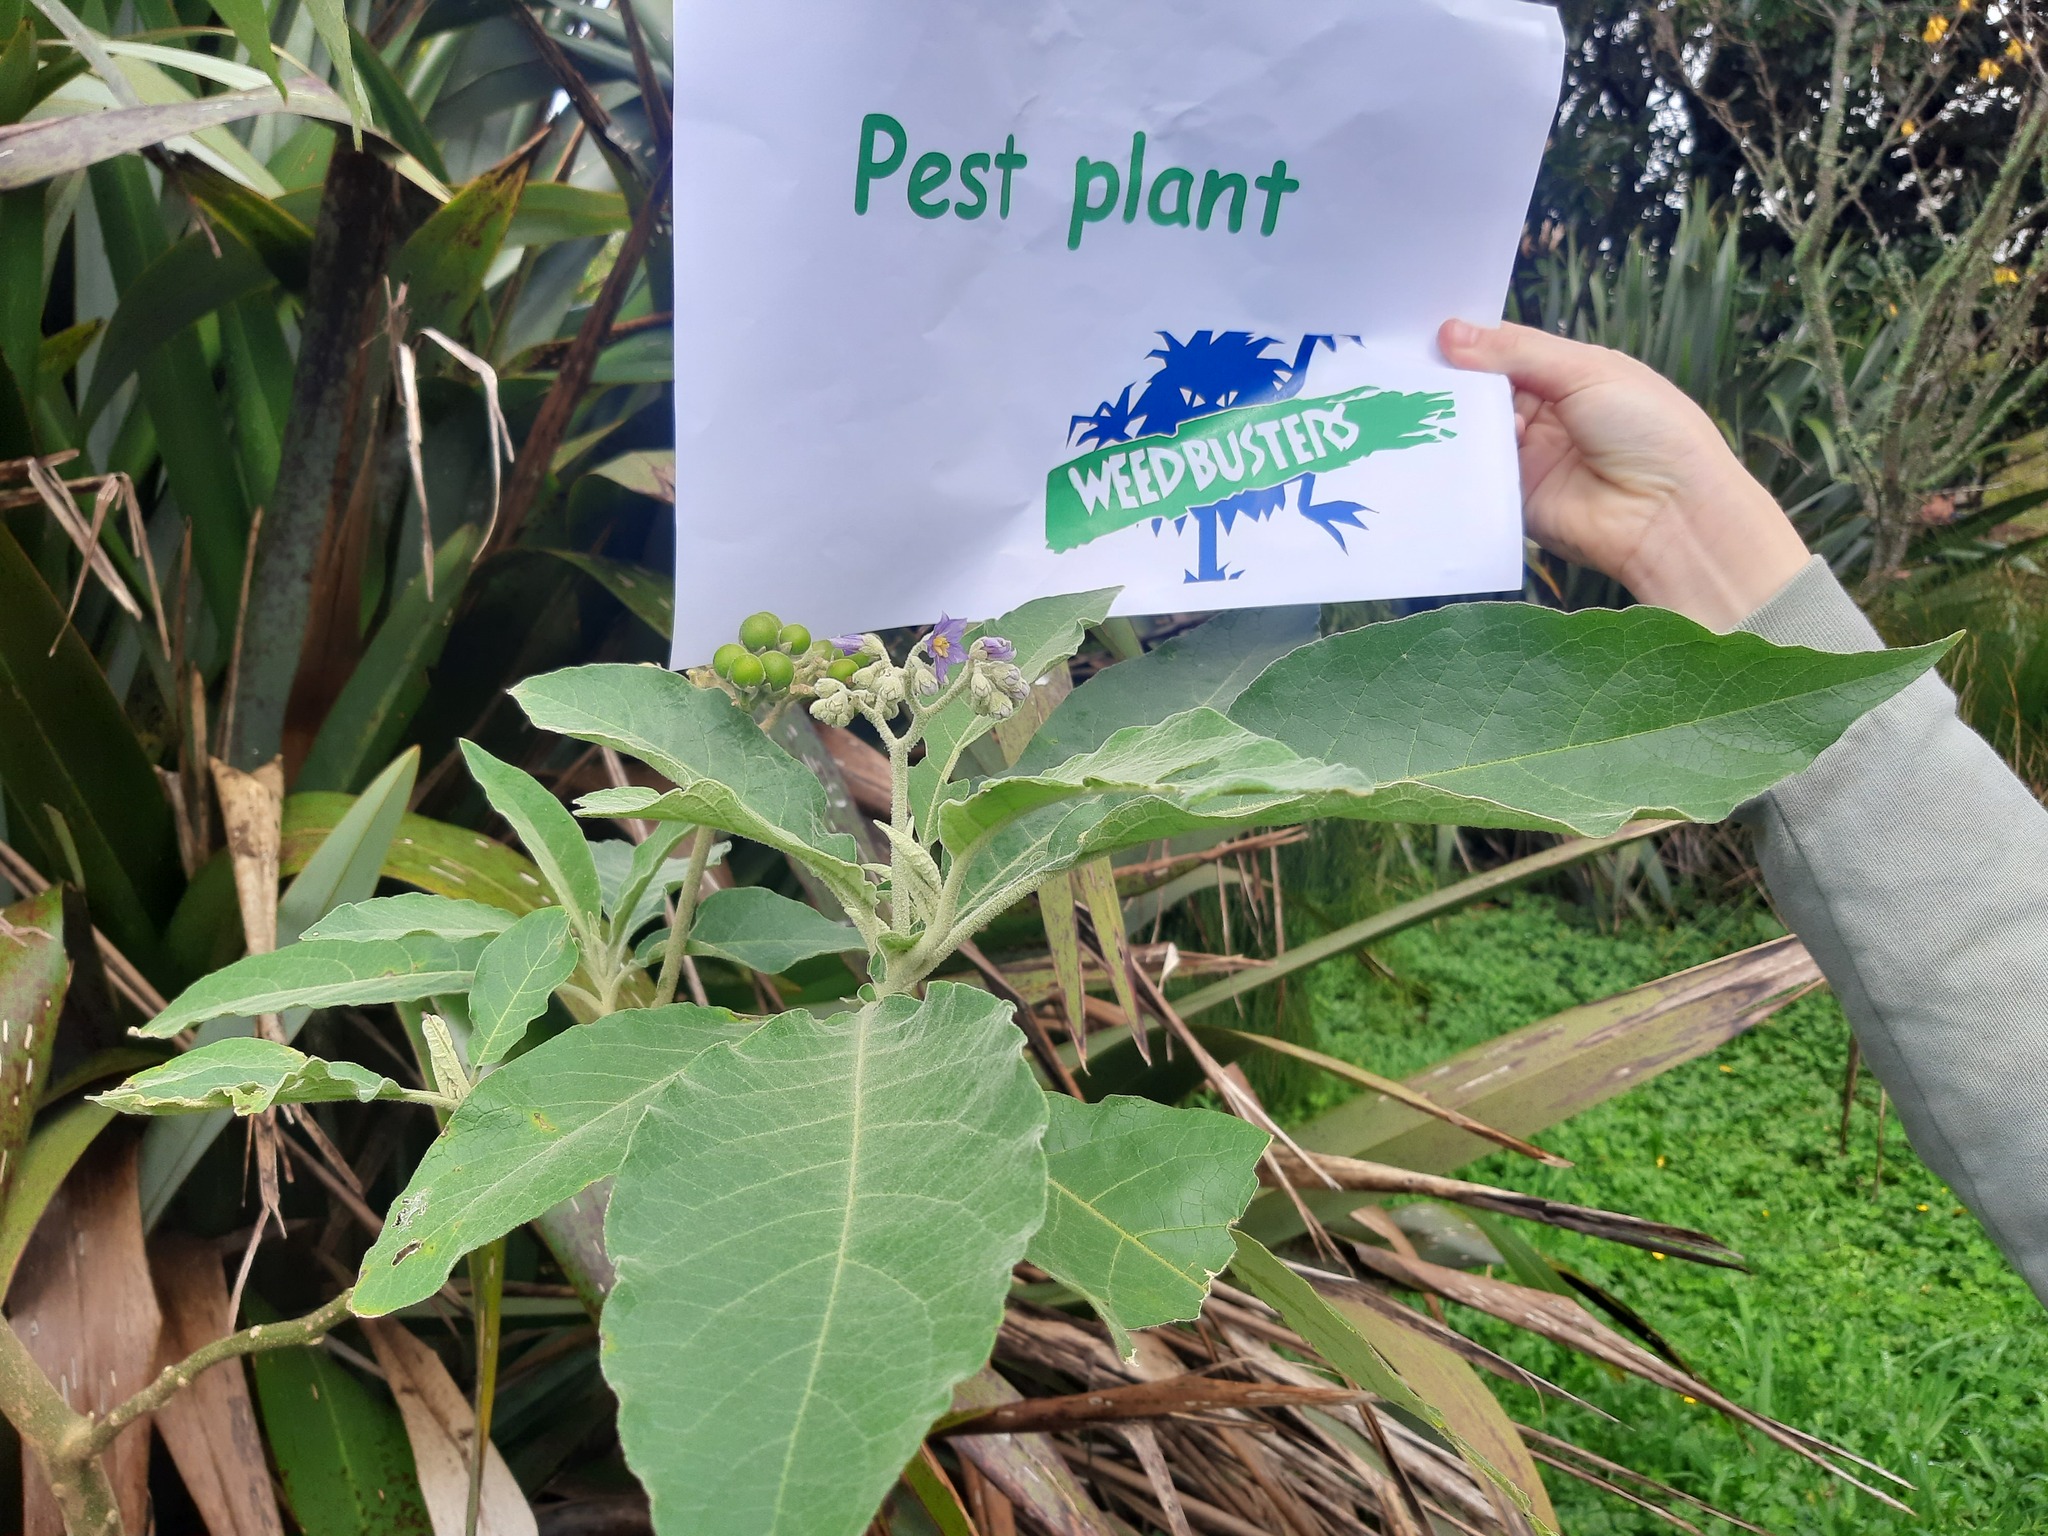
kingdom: Plantae
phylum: Tracheophyta
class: Magnoliopsida
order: Solanales
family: Solanaceae
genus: Solanum
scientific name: Solanum mauritianum
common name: Earleaf nightshade
